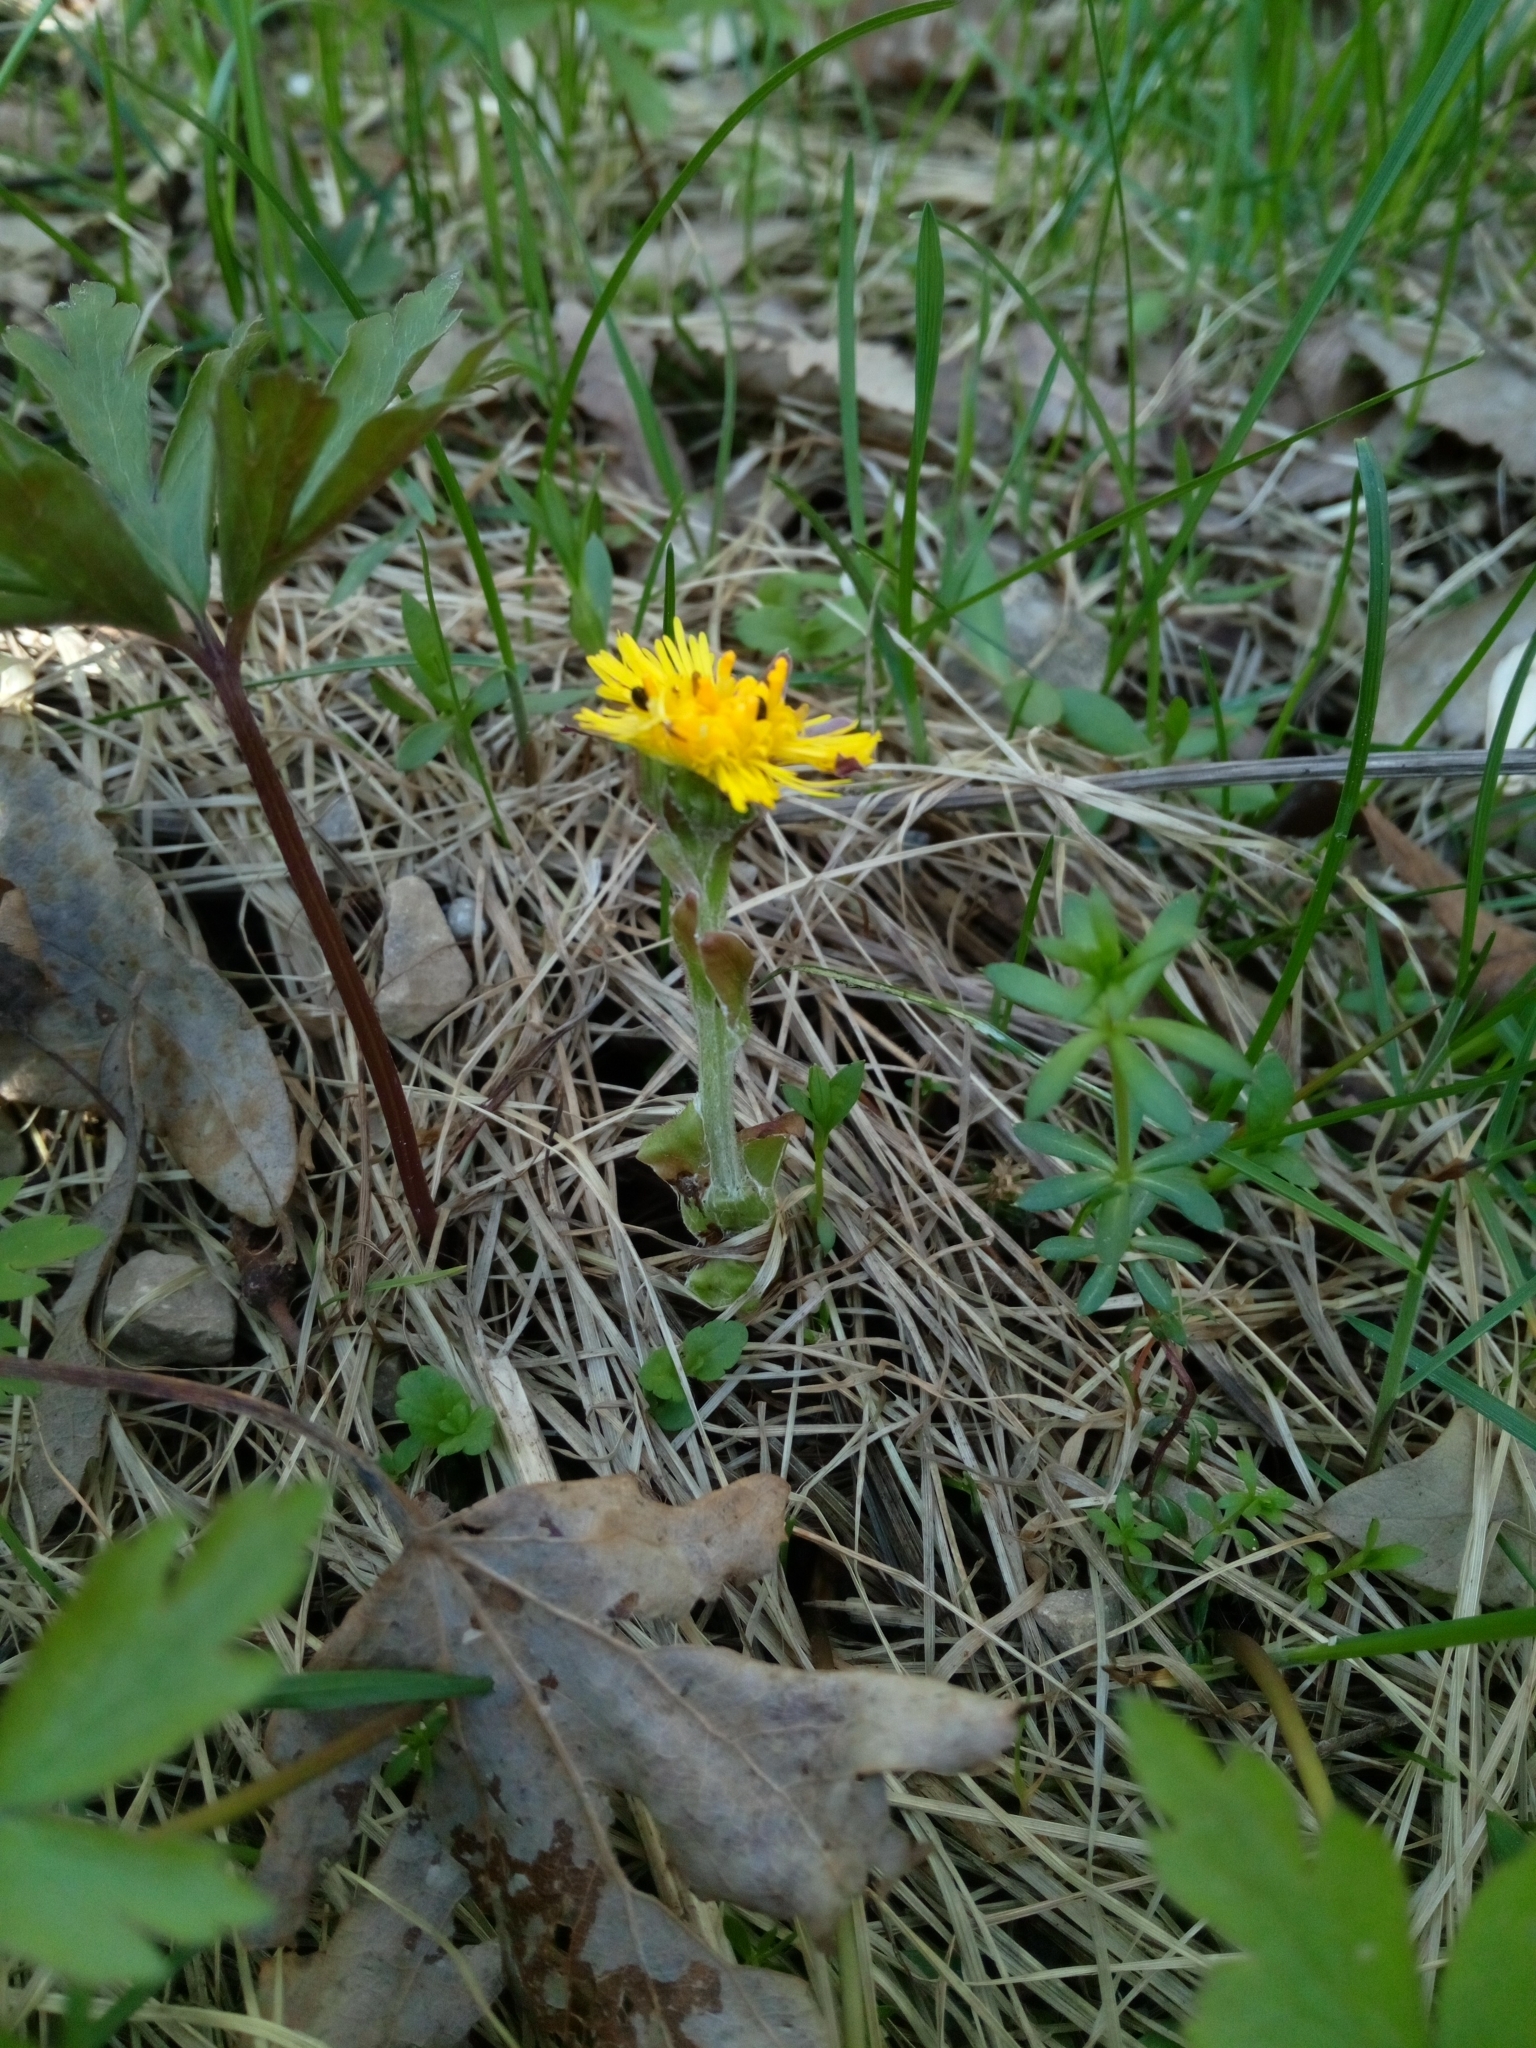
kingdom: Plantae
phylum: Tracheophyta
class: Magnoliopsida
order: Asterales
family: Asteraceae
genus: Tussilago
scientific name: Tussilago farfara
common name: Coltsfoot
